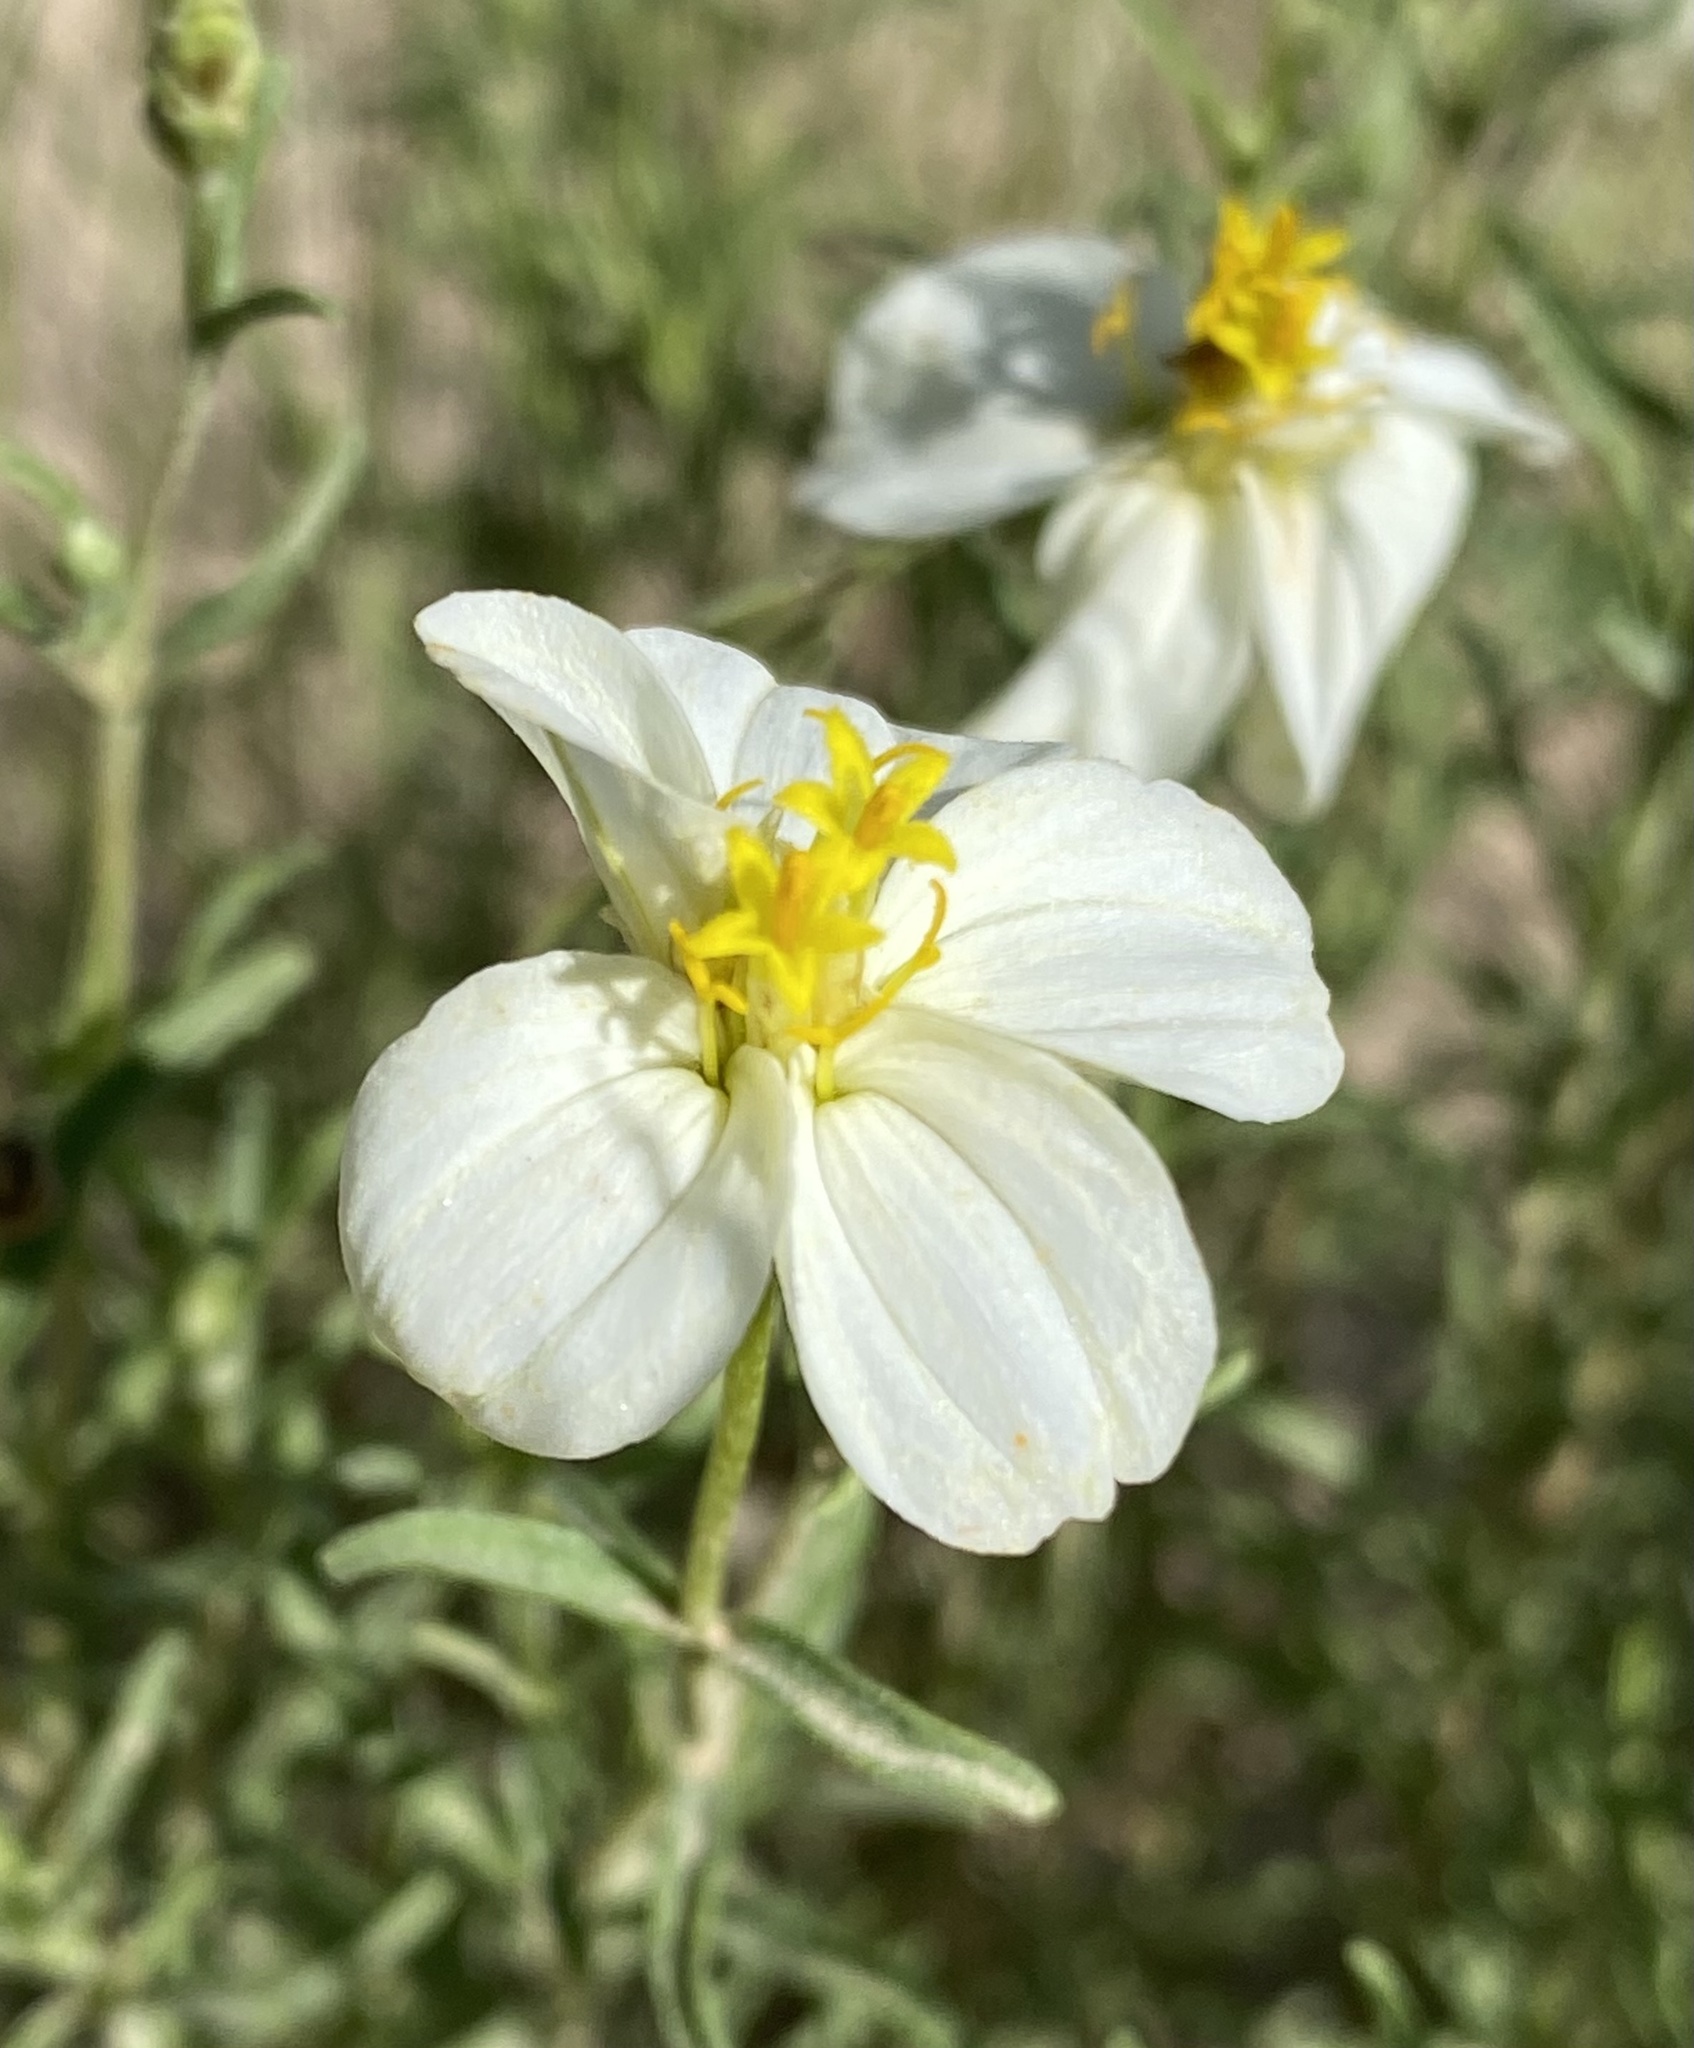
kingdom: Plantae
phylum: Tracheophyta
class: Magnoliopsida
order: Asterales
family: Asteraceae
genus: Zinnia
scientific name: Zinnia acerosa
